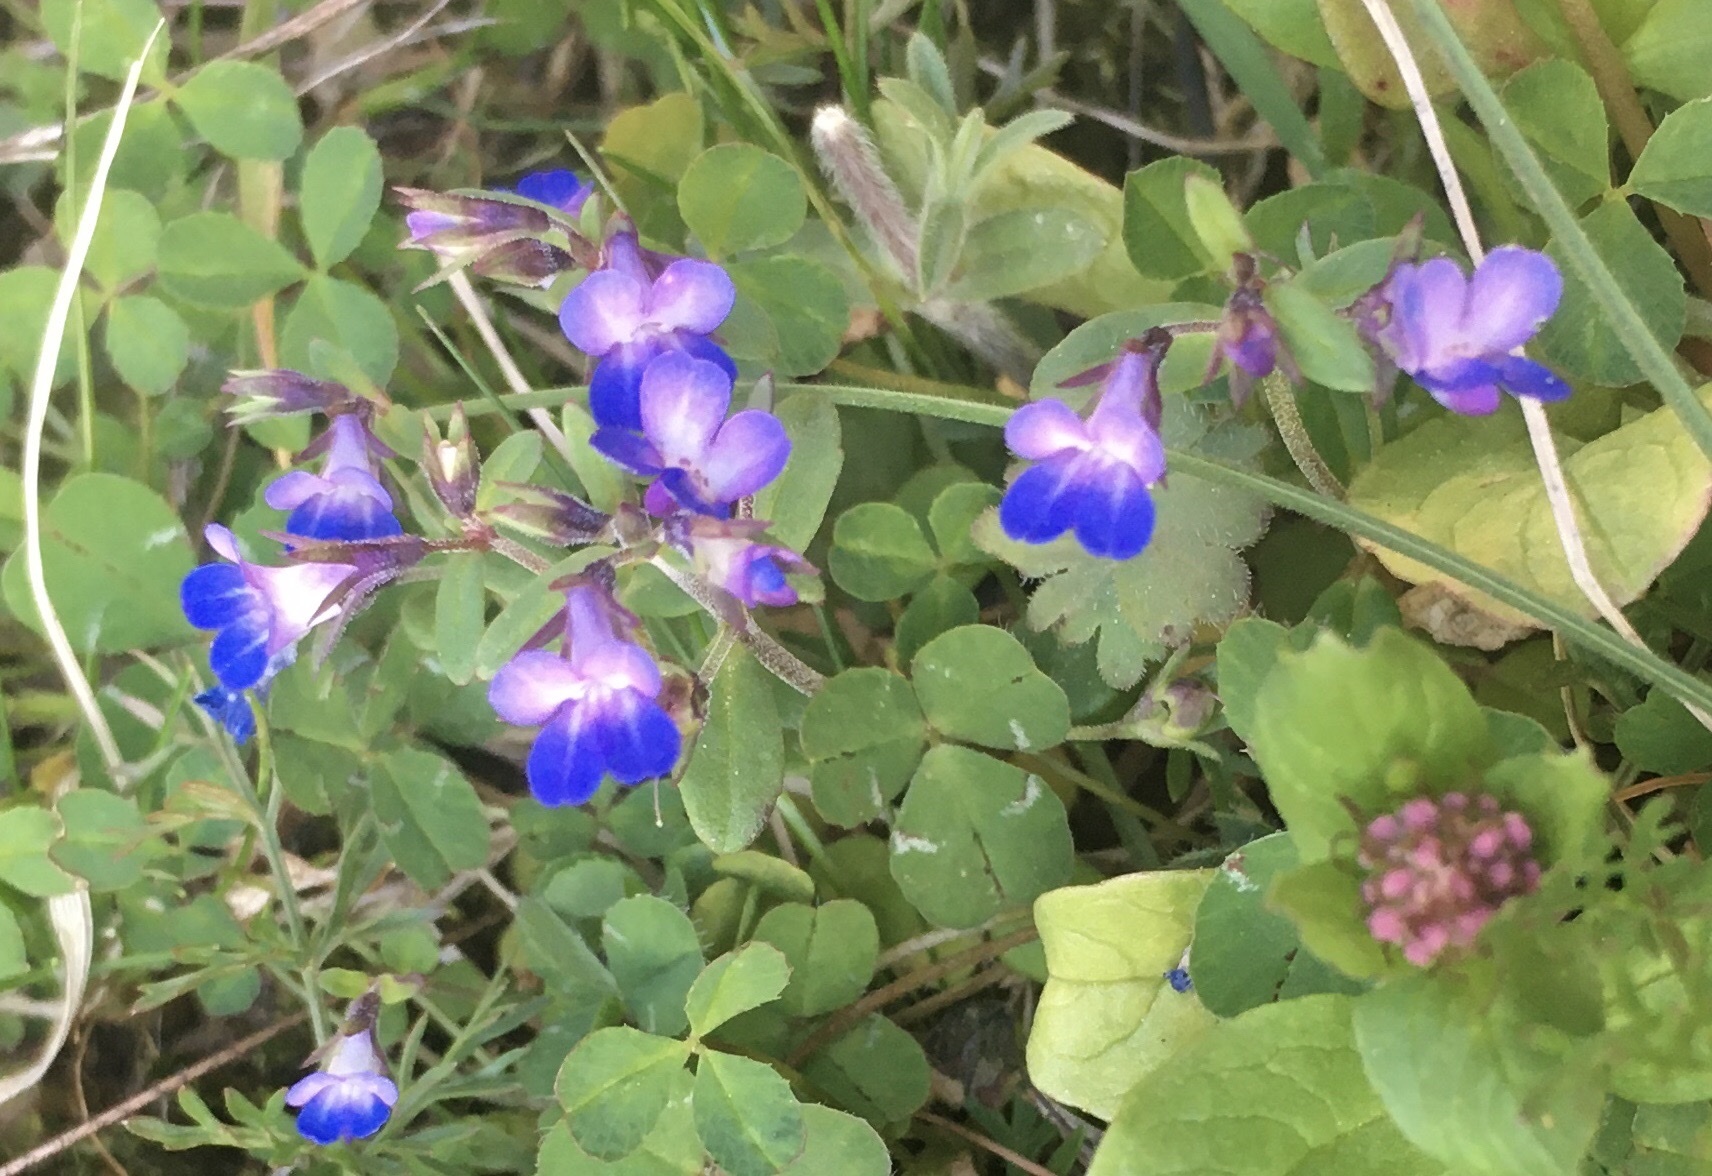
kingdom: Plantae
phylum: Tracheophyta
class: Magnoliopsida
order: Lamiales
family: Plantaginaceae
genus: Collinsia
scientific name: Collinsia parviflora
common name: Blue-lips
